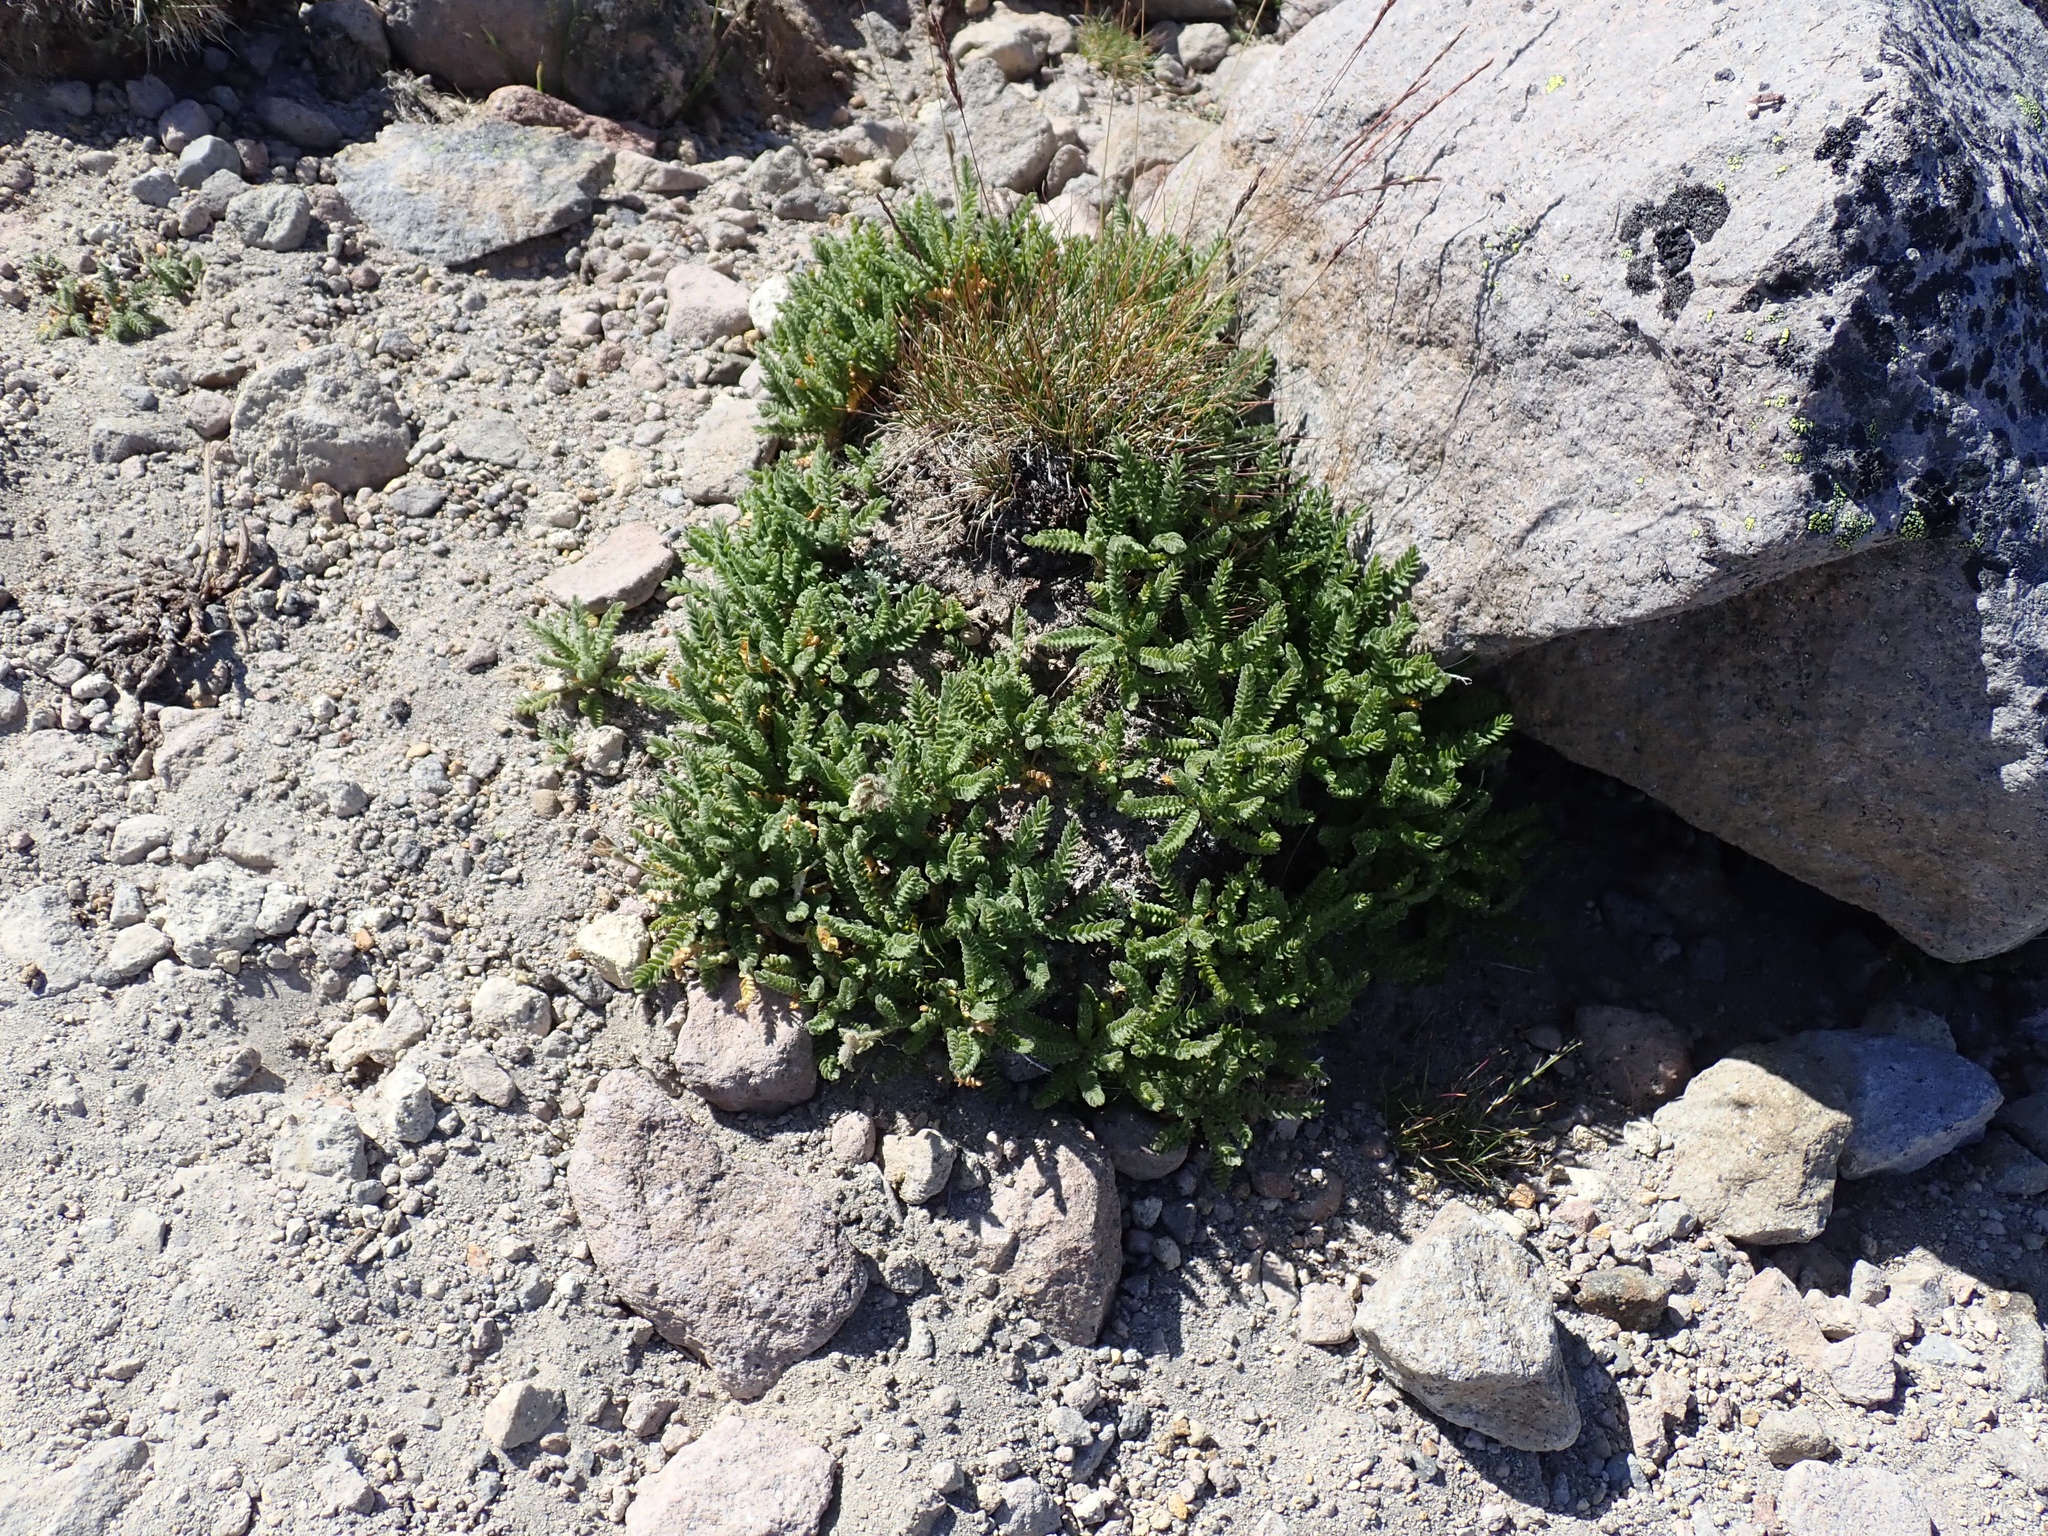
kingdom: Plantae
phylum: Tracheophyta
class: Magnoliopsida
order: Ericales
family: Polemoniaceae
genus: Polemonium
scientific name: Polemonium elegans
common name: Elegant jacob's-ladder
